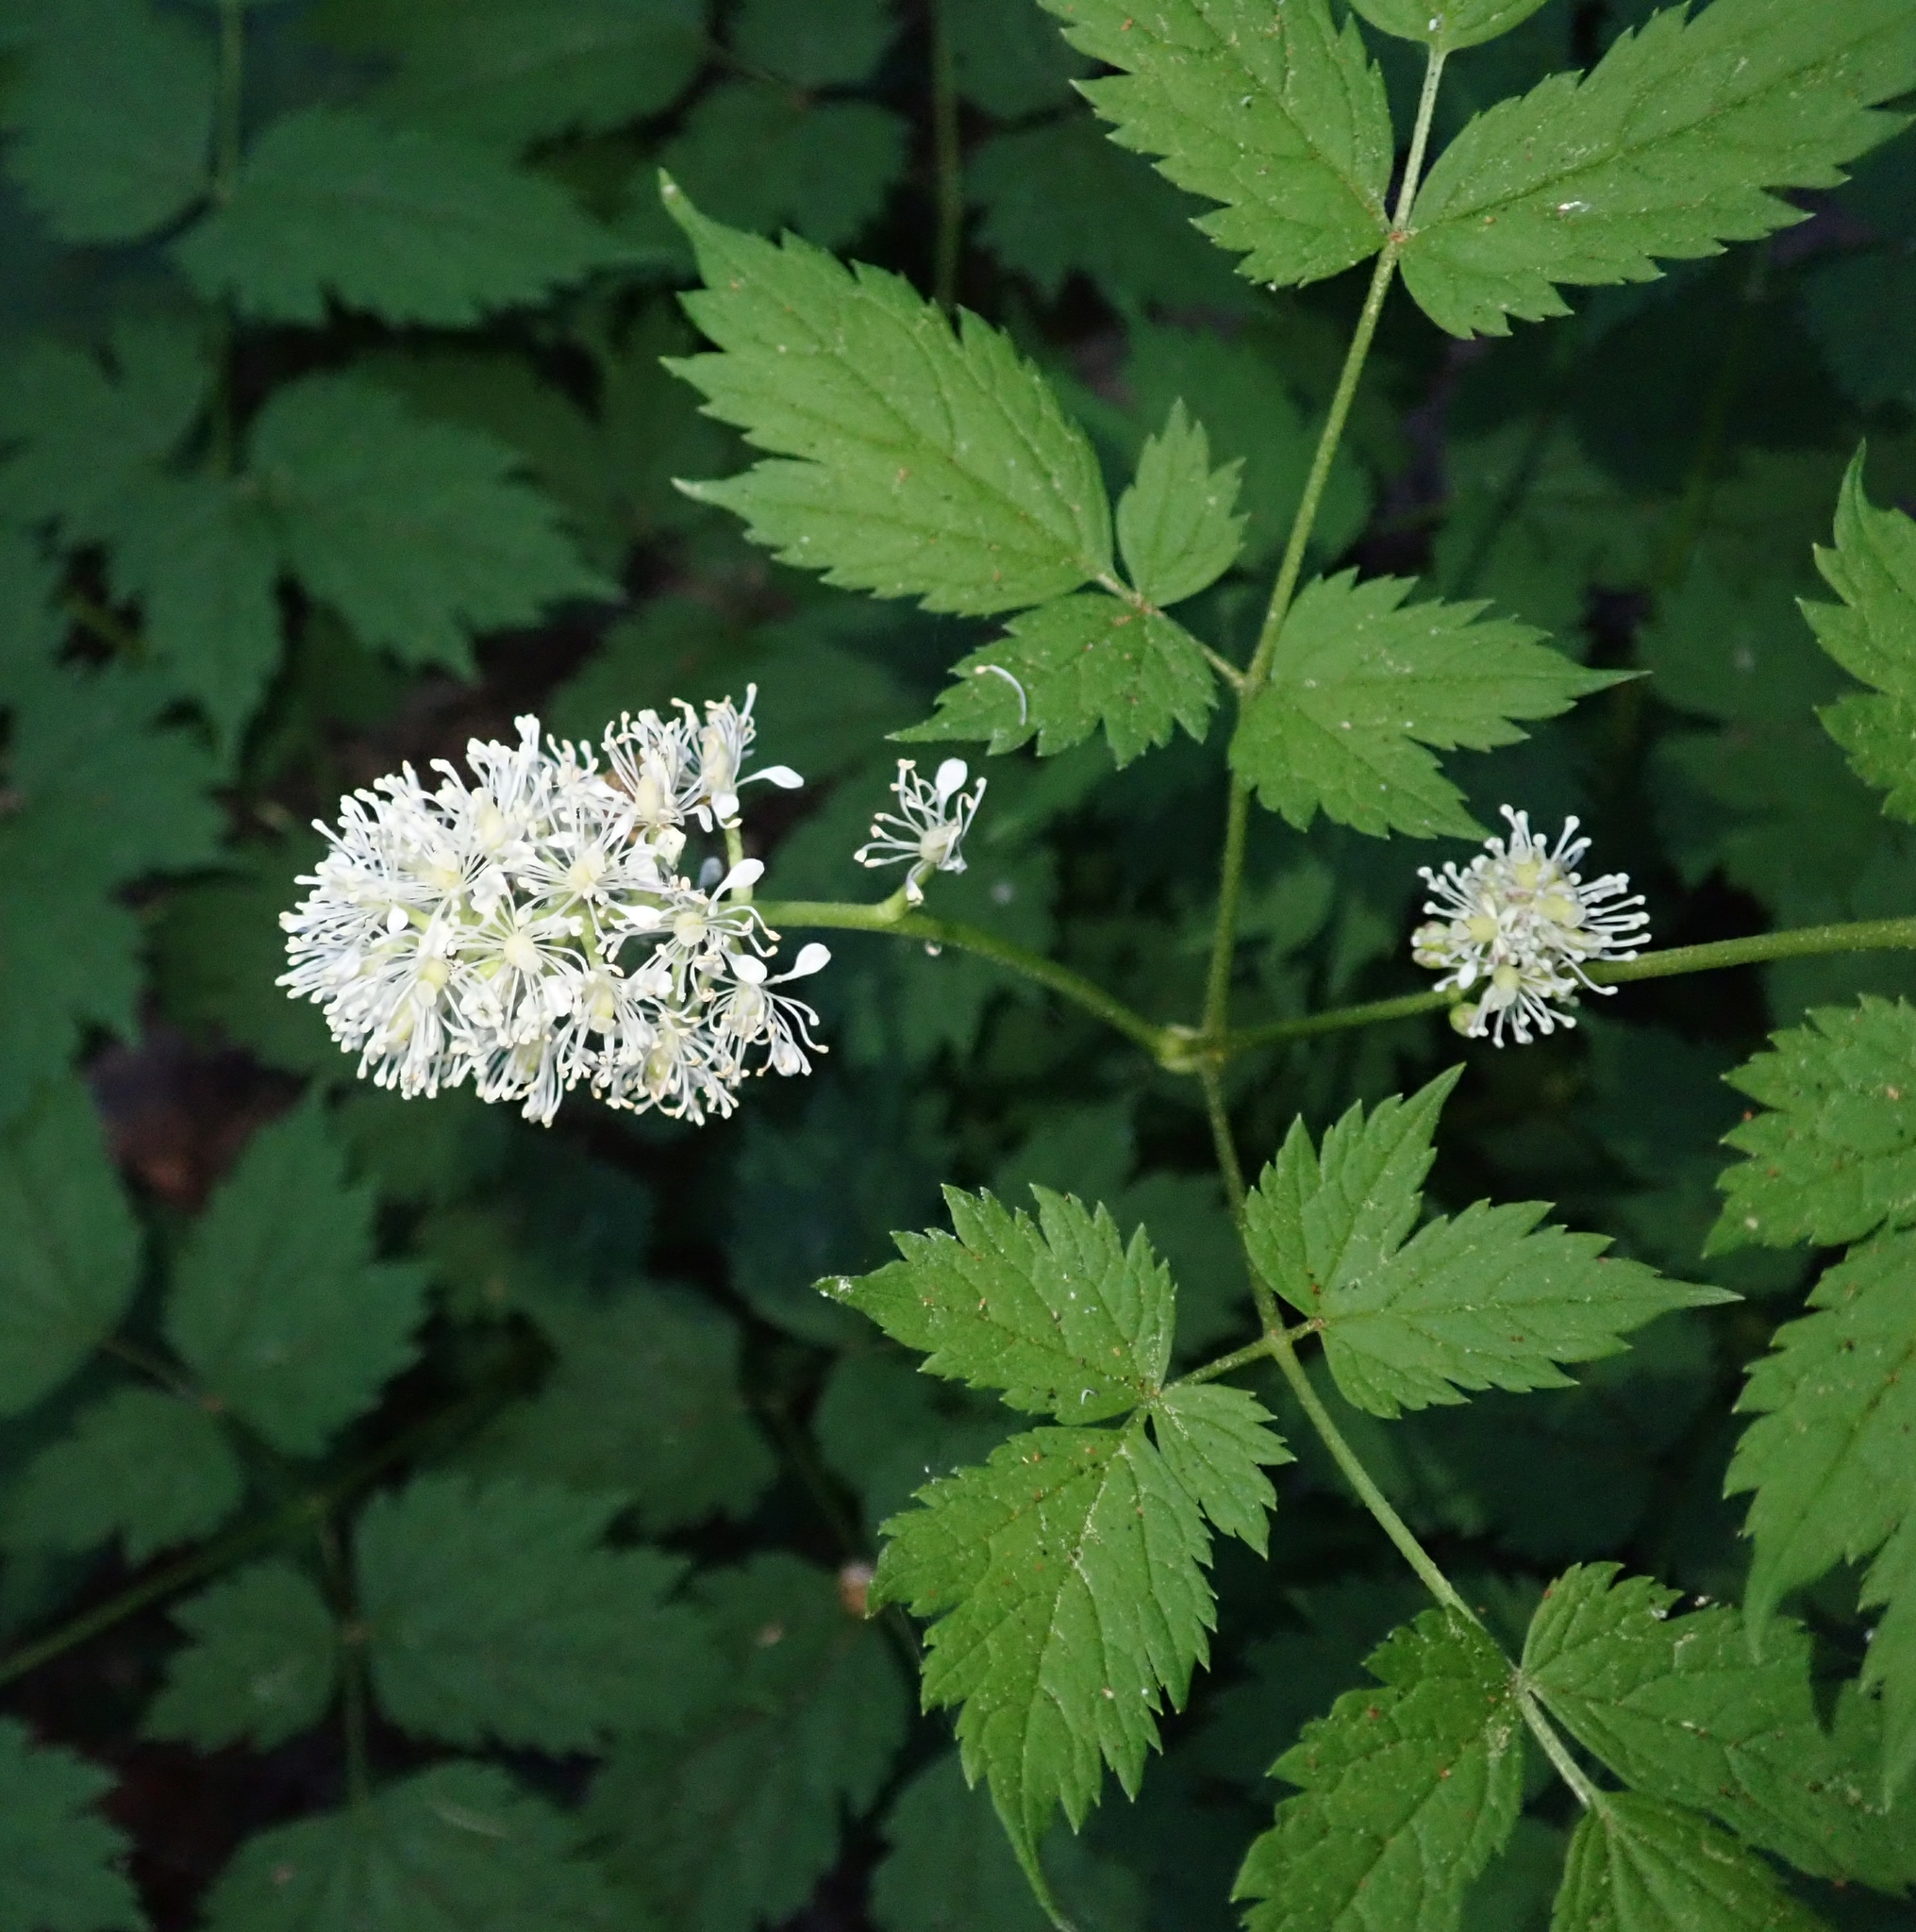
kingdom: Plantae
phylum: Tracheophyta
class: Magnoliopsida
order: Ranunculales
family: Ranunculaceae
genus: Actaea
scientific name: Actaea spicata
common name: Baneberry
